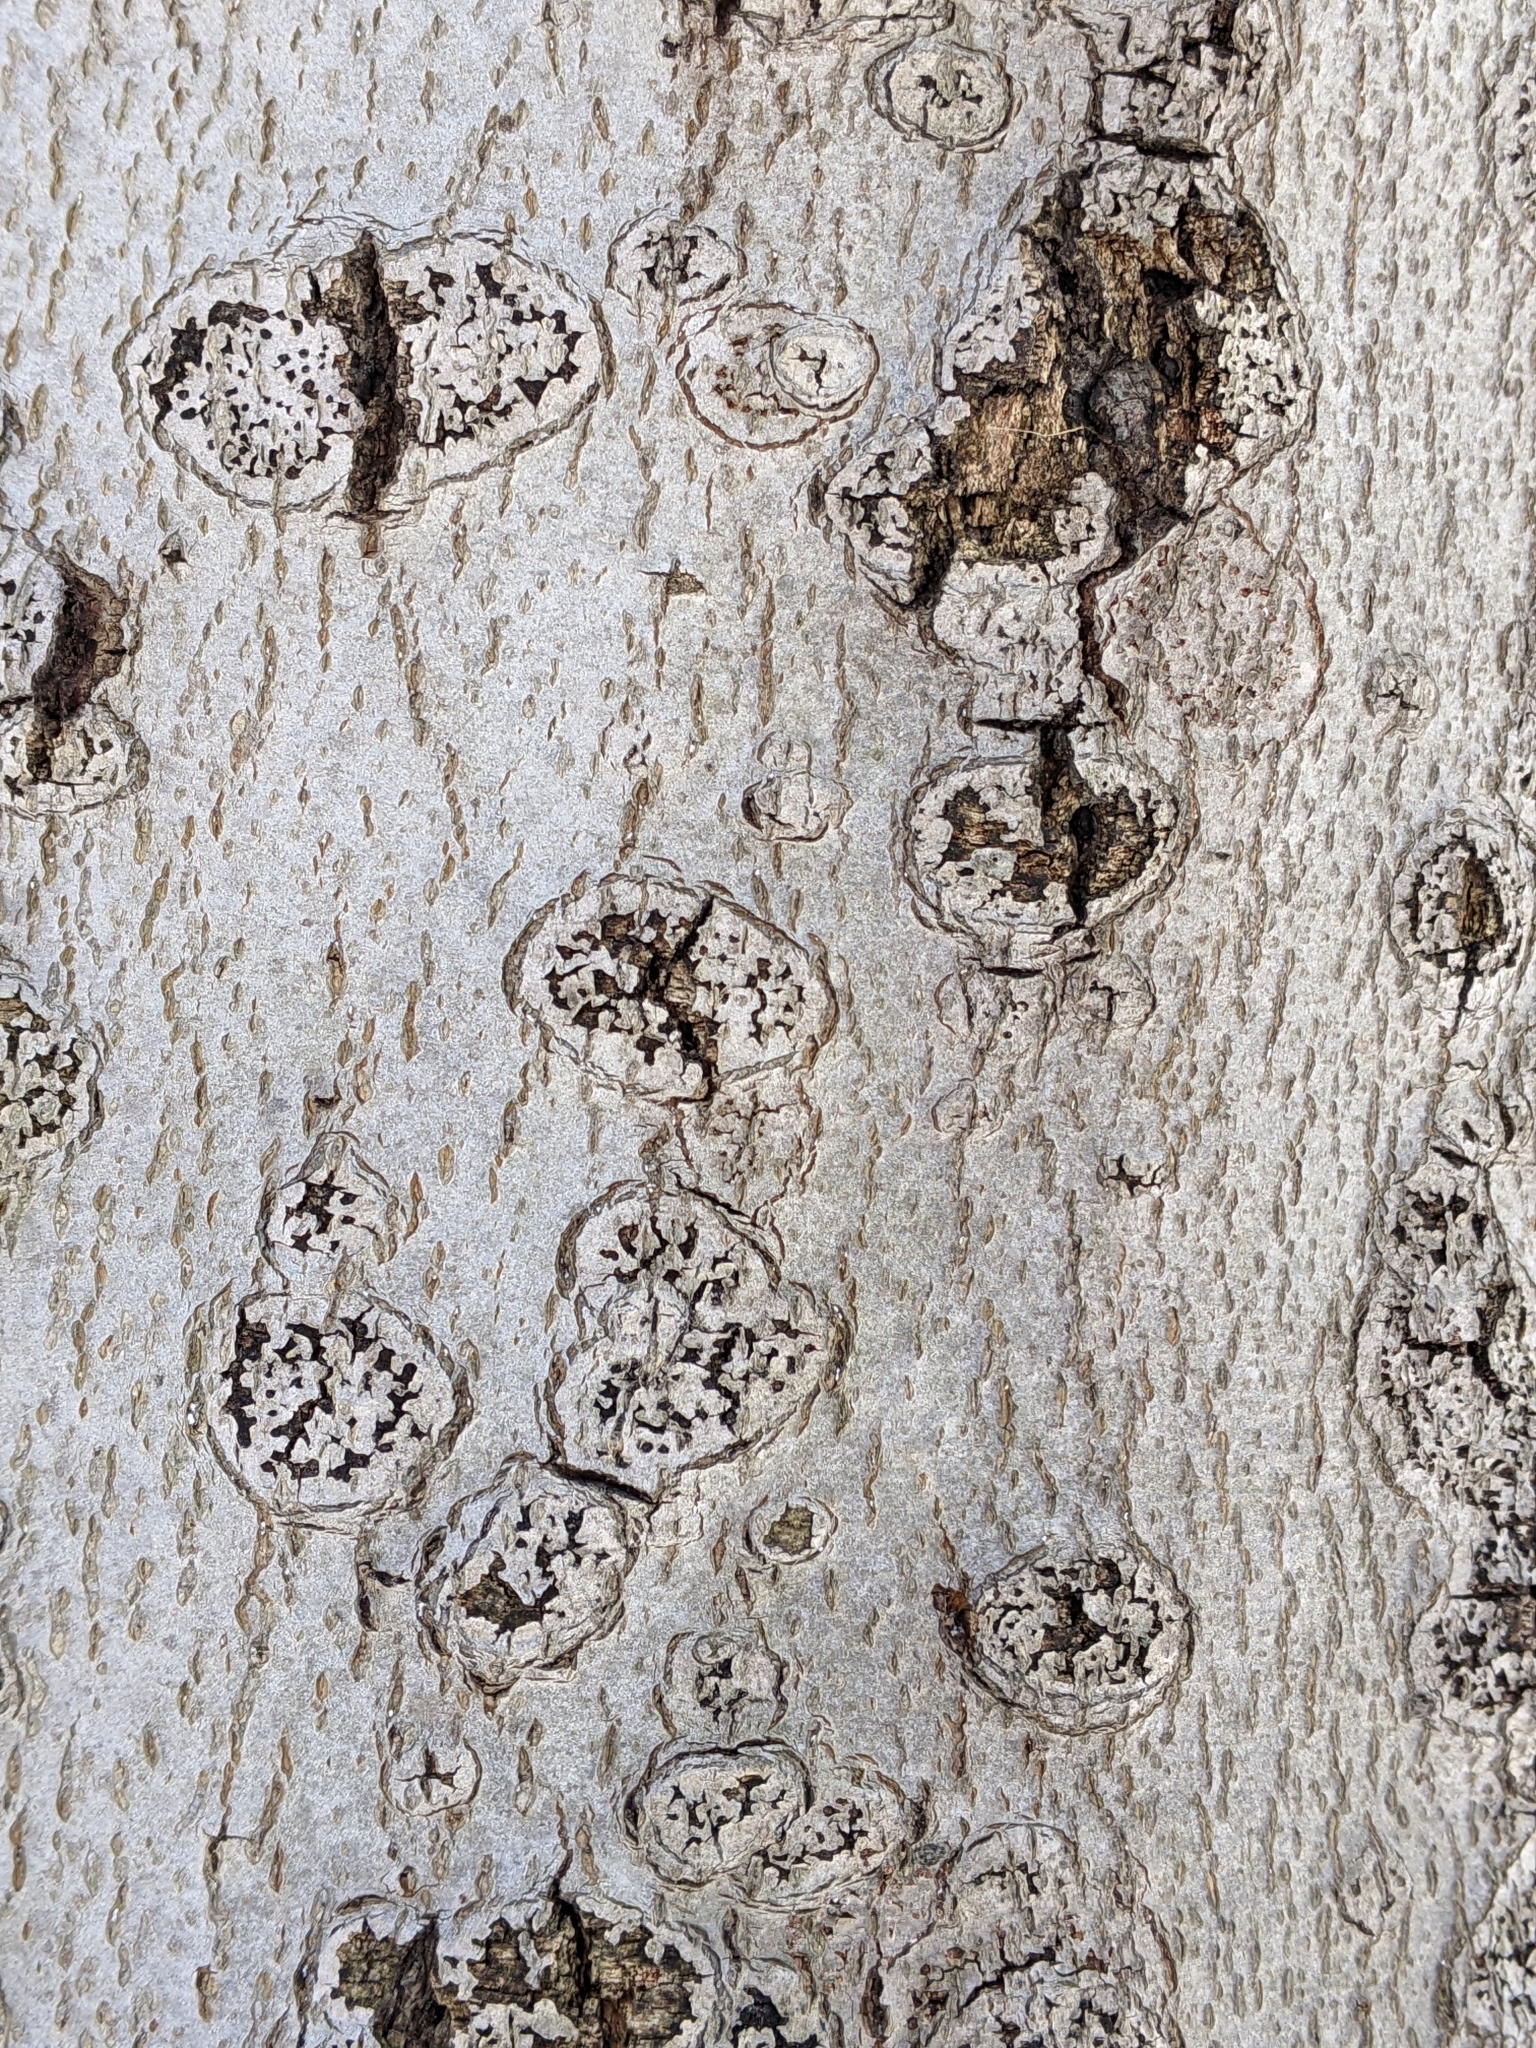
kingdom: Fungi
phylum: Ascomycota
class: Sordariomycetes
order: Hypocreales
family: Nectriaceae
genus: Neonectria
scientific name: Neonectria faginata
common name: Beech bark canker
